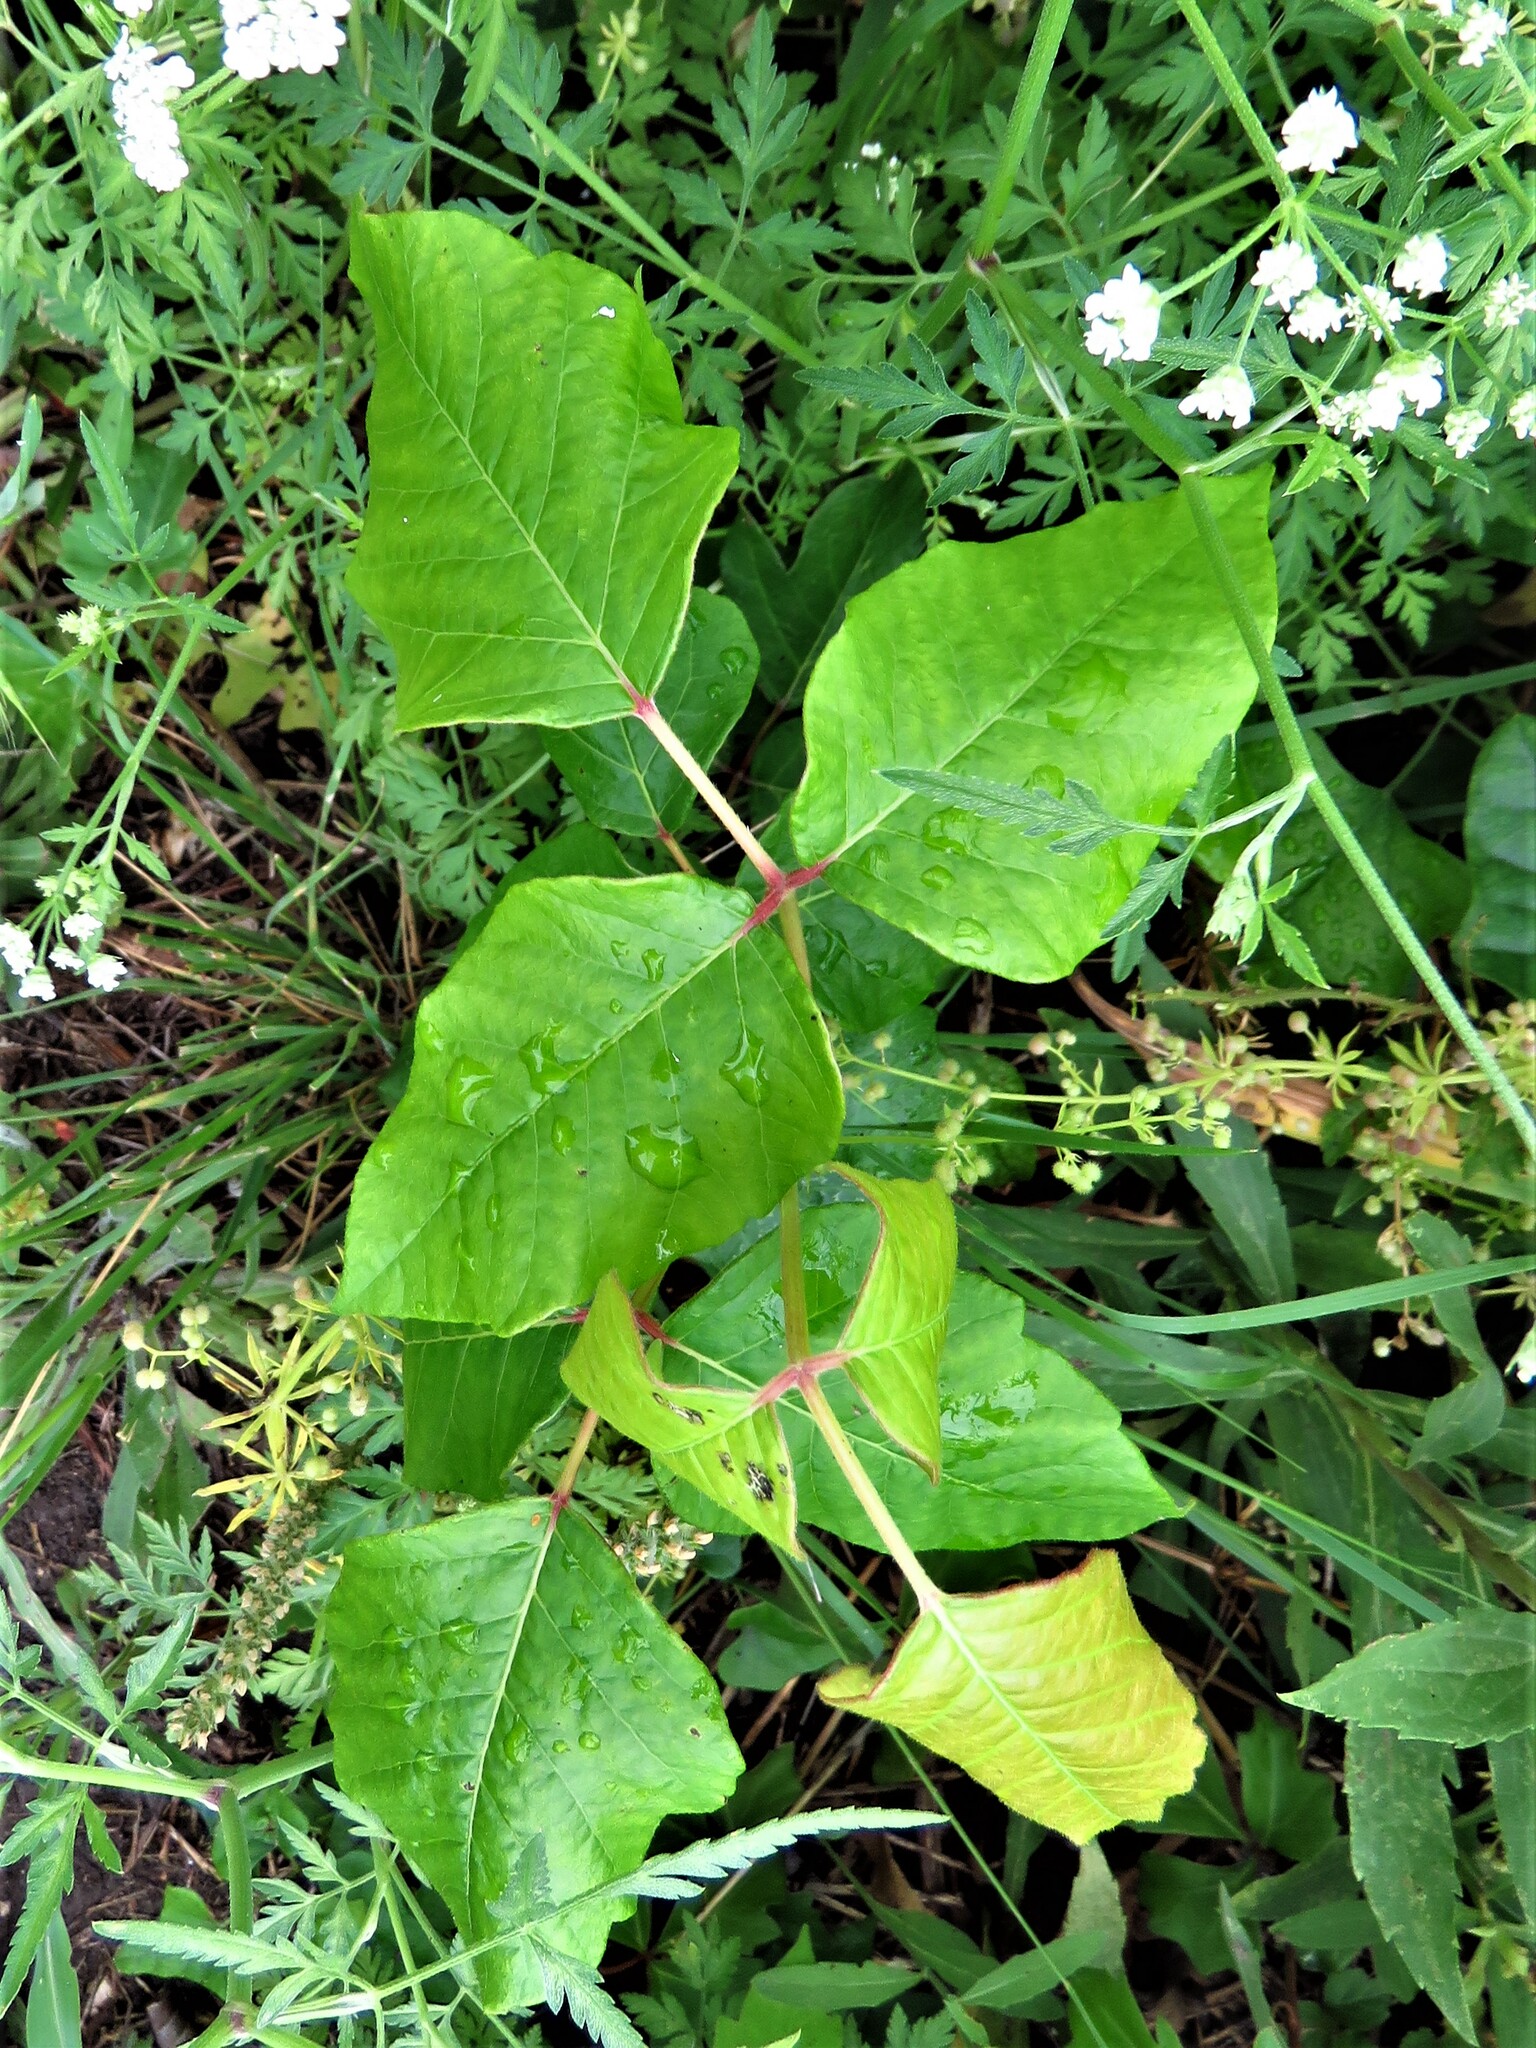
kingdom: Plantae
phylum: Tracheophyta
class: Magnoliopsida
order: Sapindales
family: Anacardiaceae
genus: Toxicodendron
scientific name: Toxicodendron radicans
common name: Poison ivy
